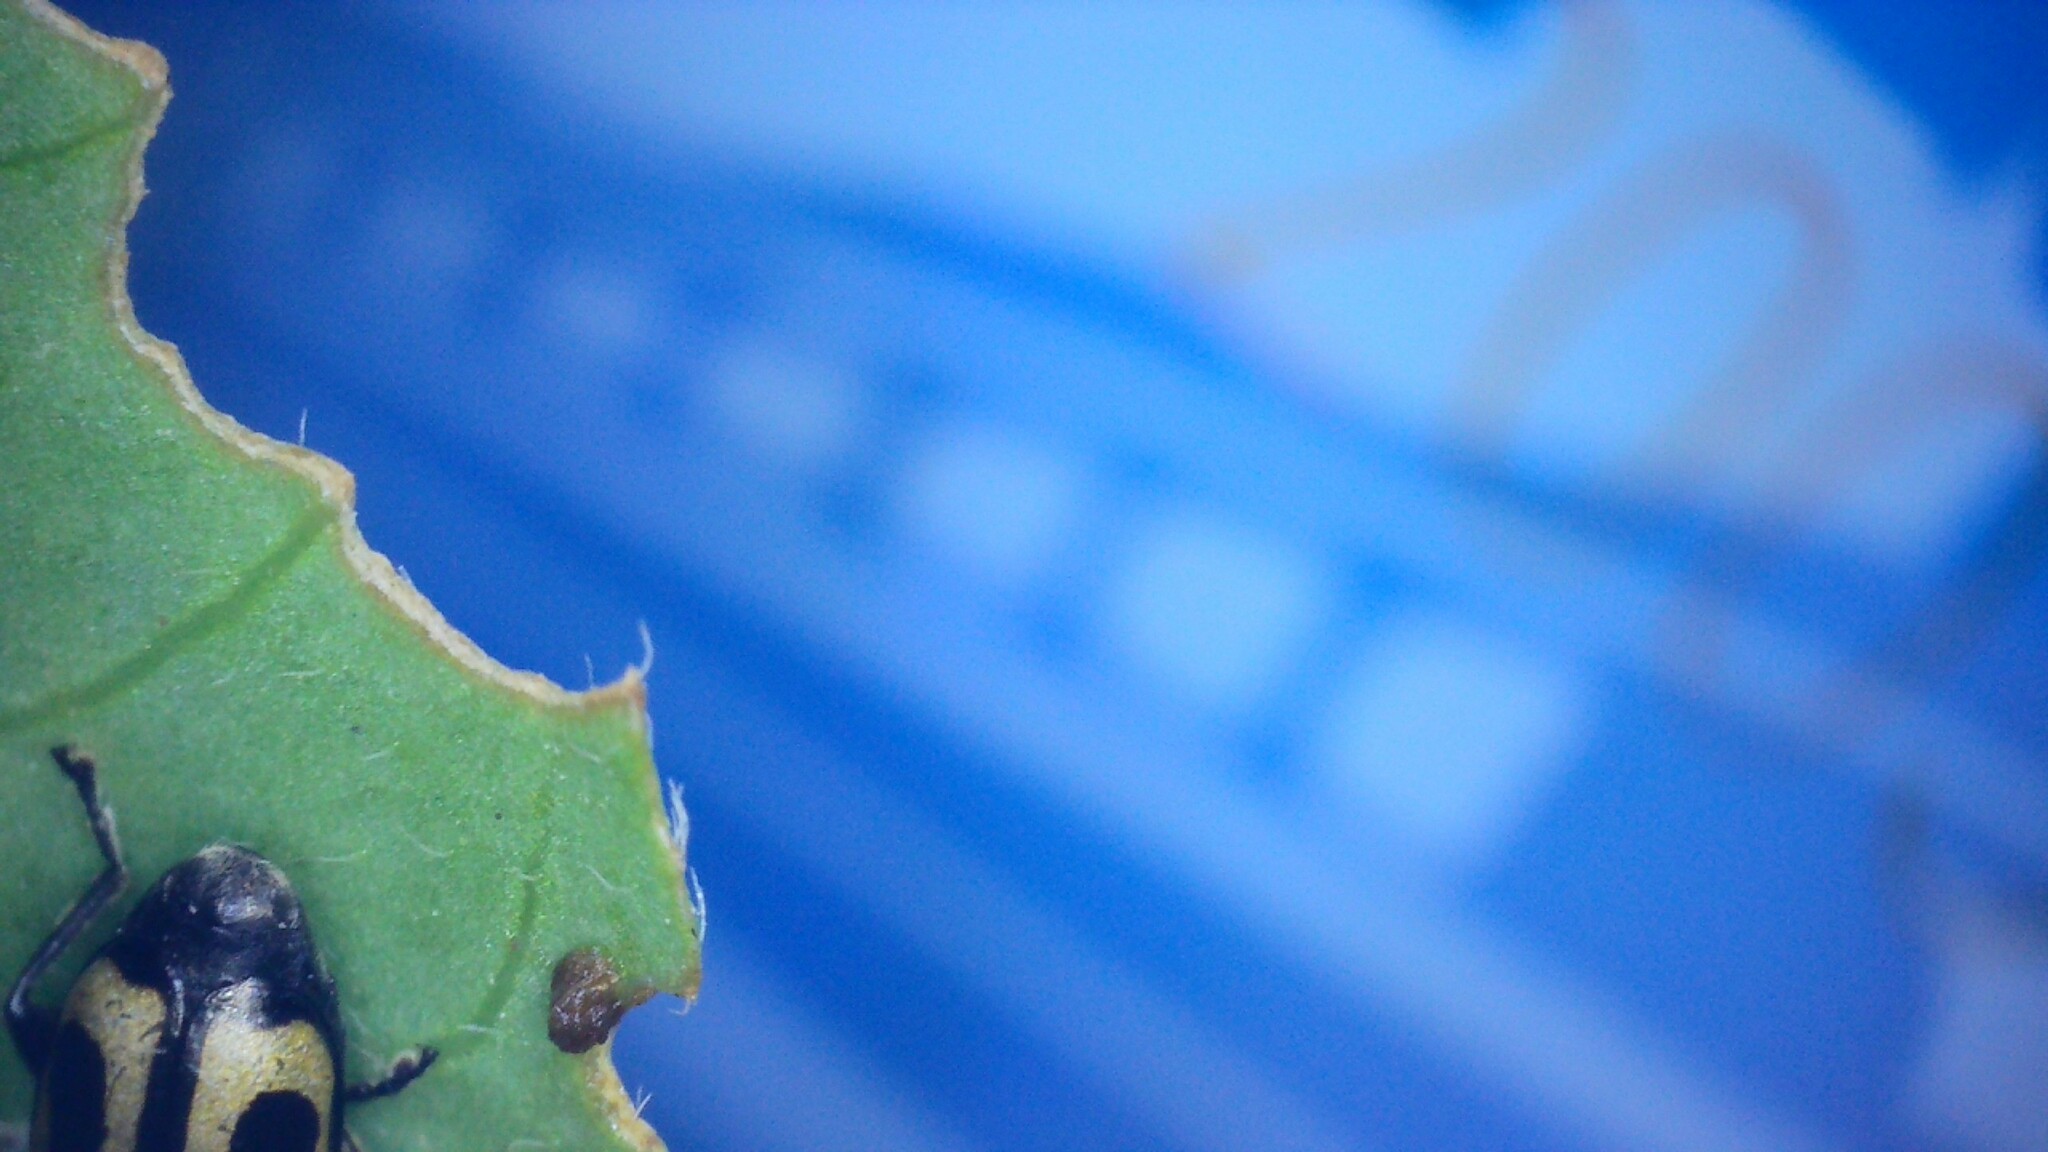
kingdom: Animalia
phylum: Arthropoda
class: Insecta
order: Coleoptera
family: Chrysomelidae
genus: Agasicles
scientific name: Agasicles hygrophila
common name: Alligatorweed flea beetle
